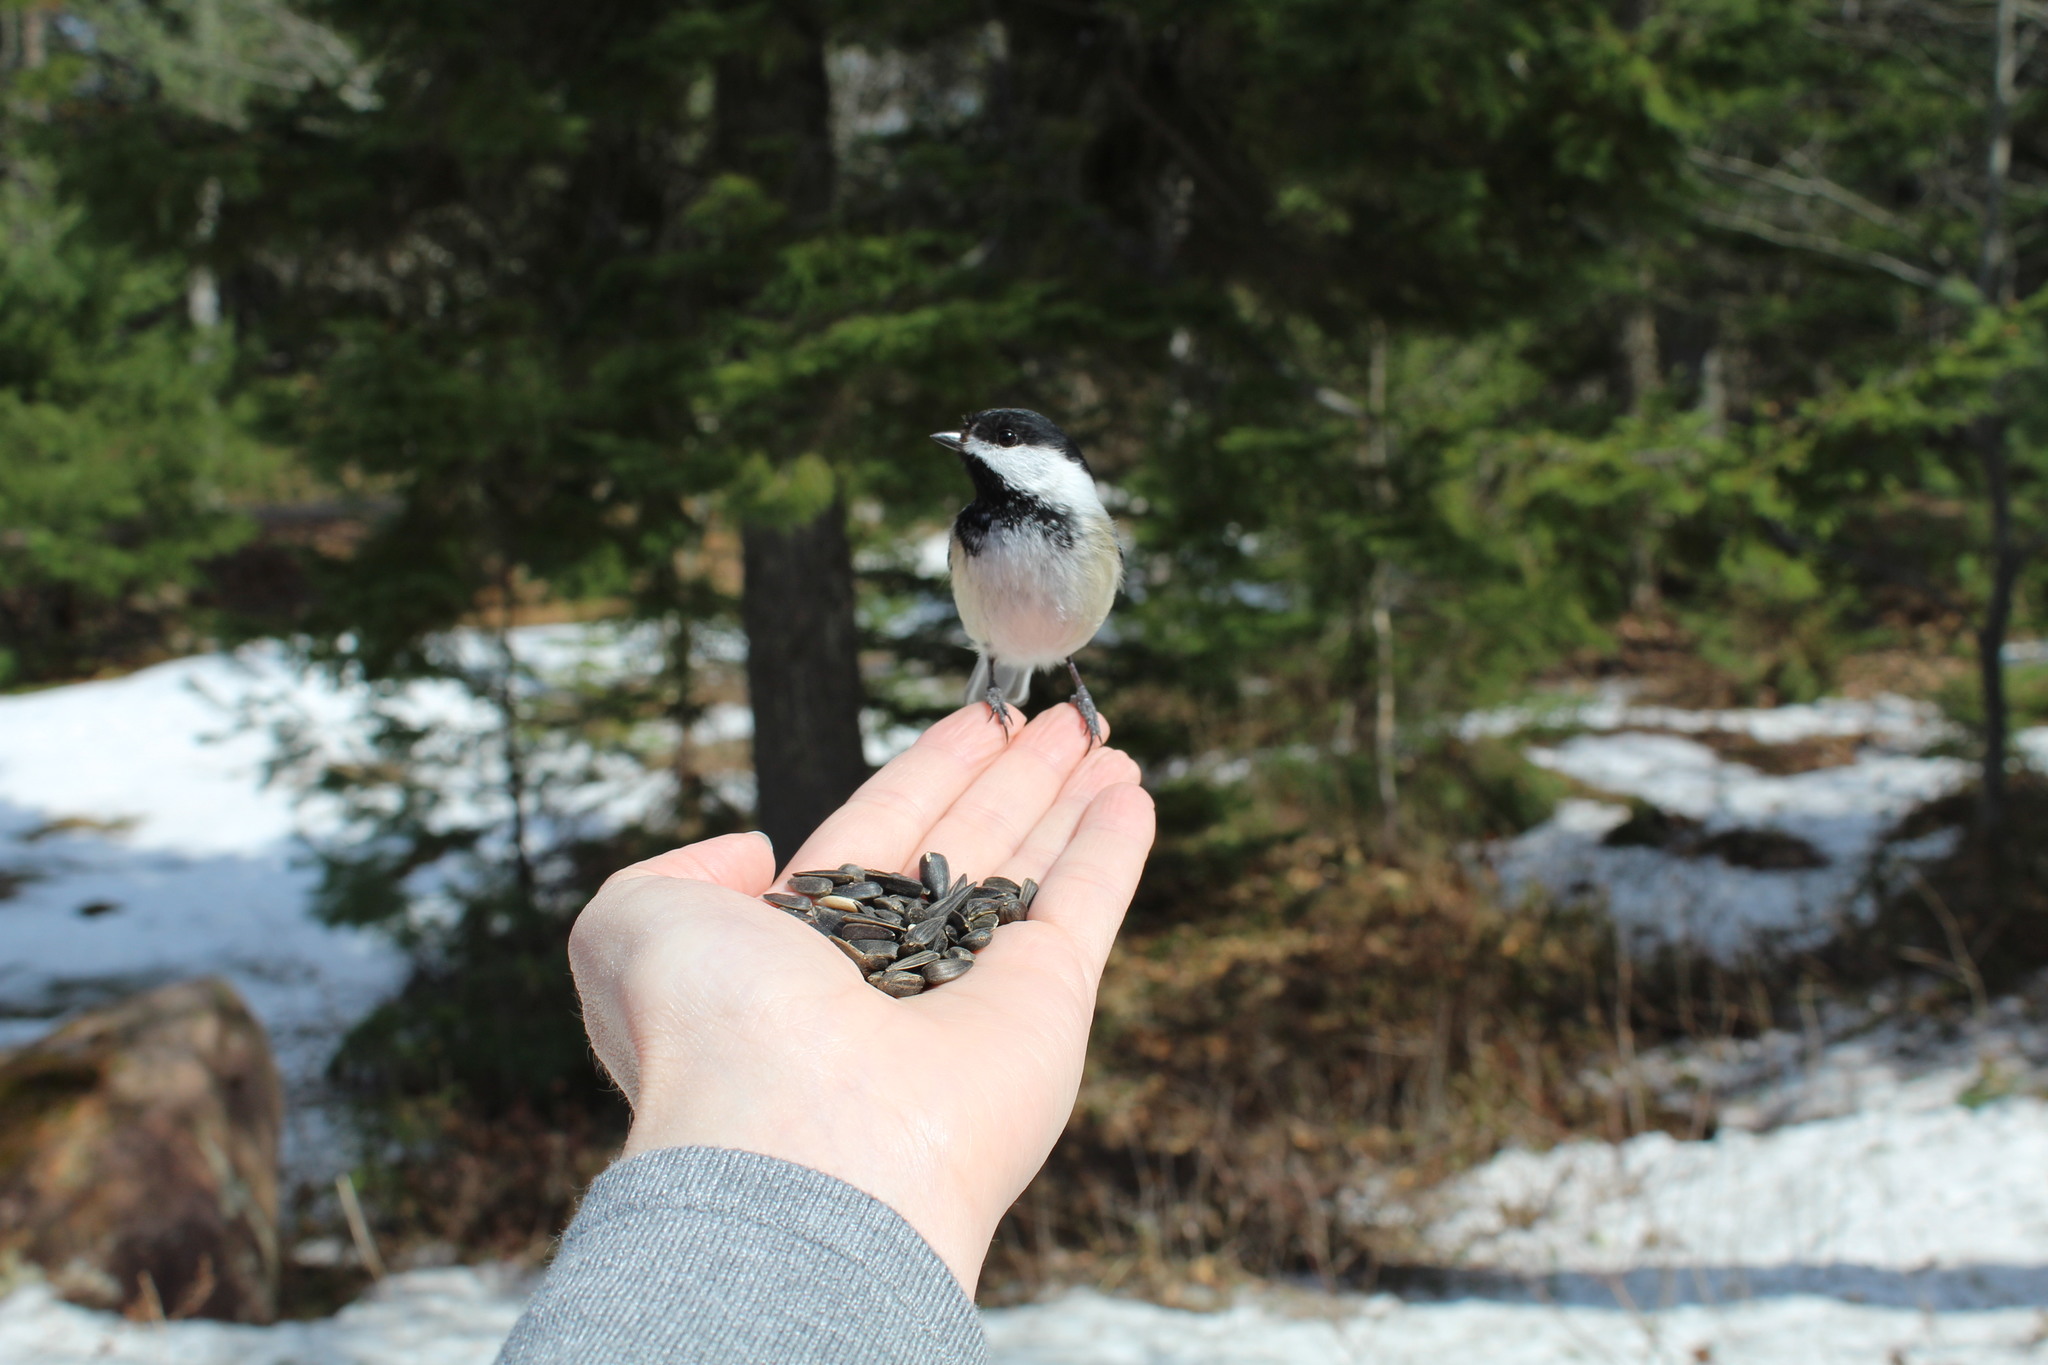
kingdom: Animalia
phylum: Chordata
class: Aves
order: Passeriformes
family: Paridae
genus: Poecile
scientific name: Poecile atricapillus
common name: Black-capped chickadee
